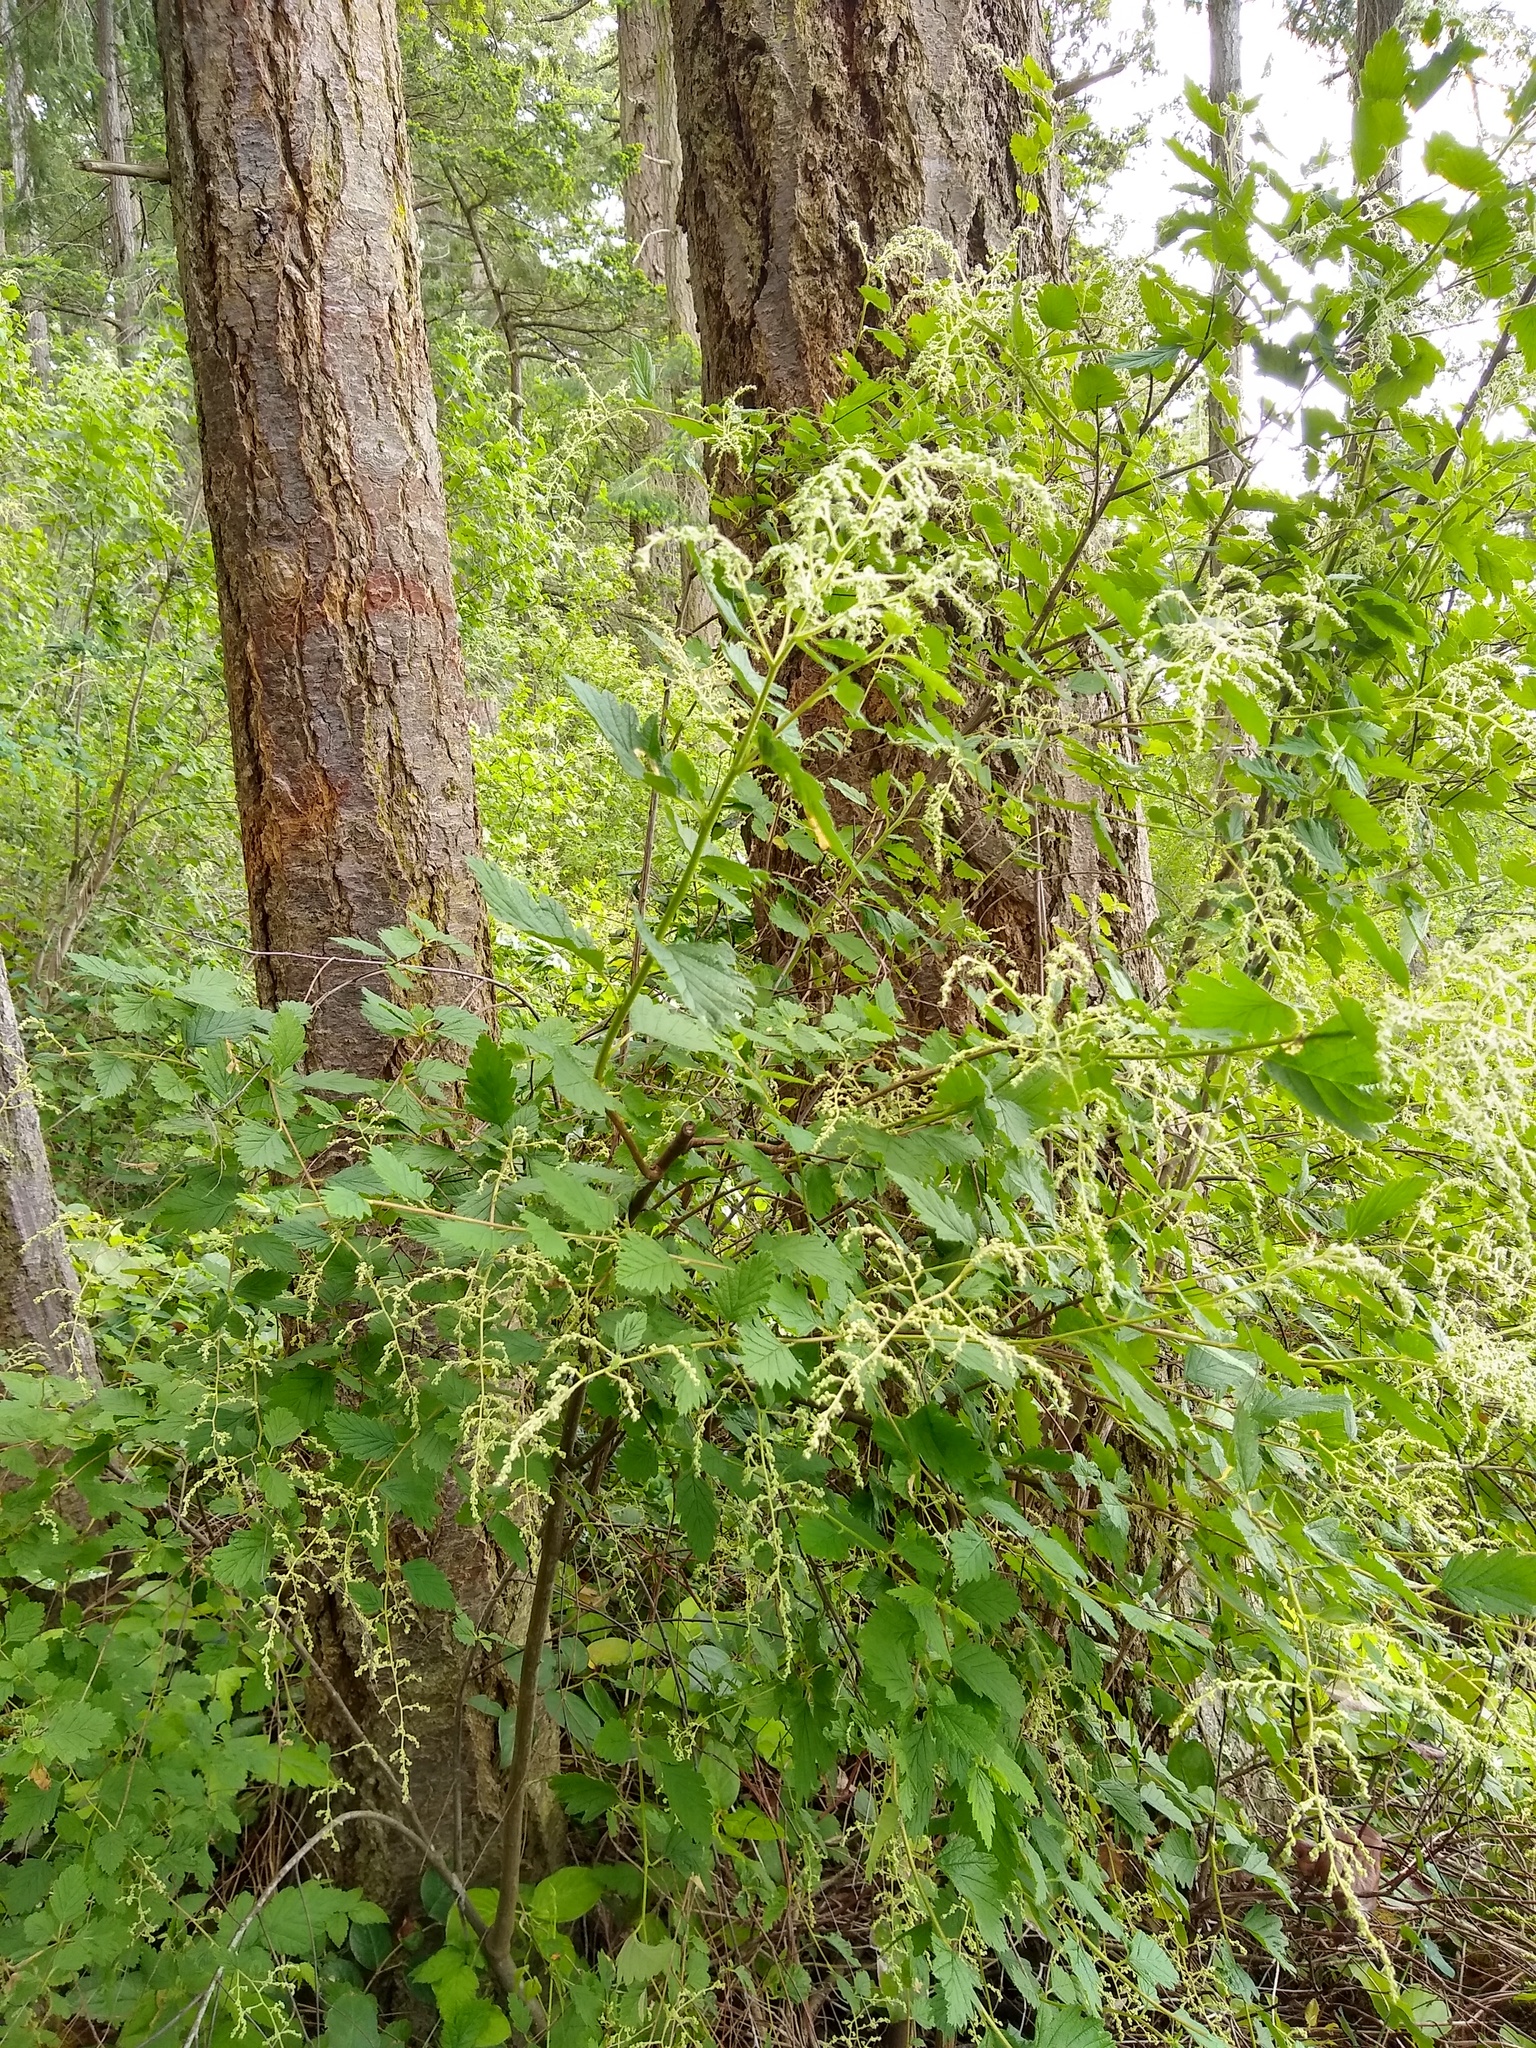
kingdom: Plantae
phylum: Tracheophyta
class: Magnoliopsida
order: Rosales
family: Rosaceae
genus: Holodiscus
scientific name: Holodiscus discolor
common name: Oceanspray
